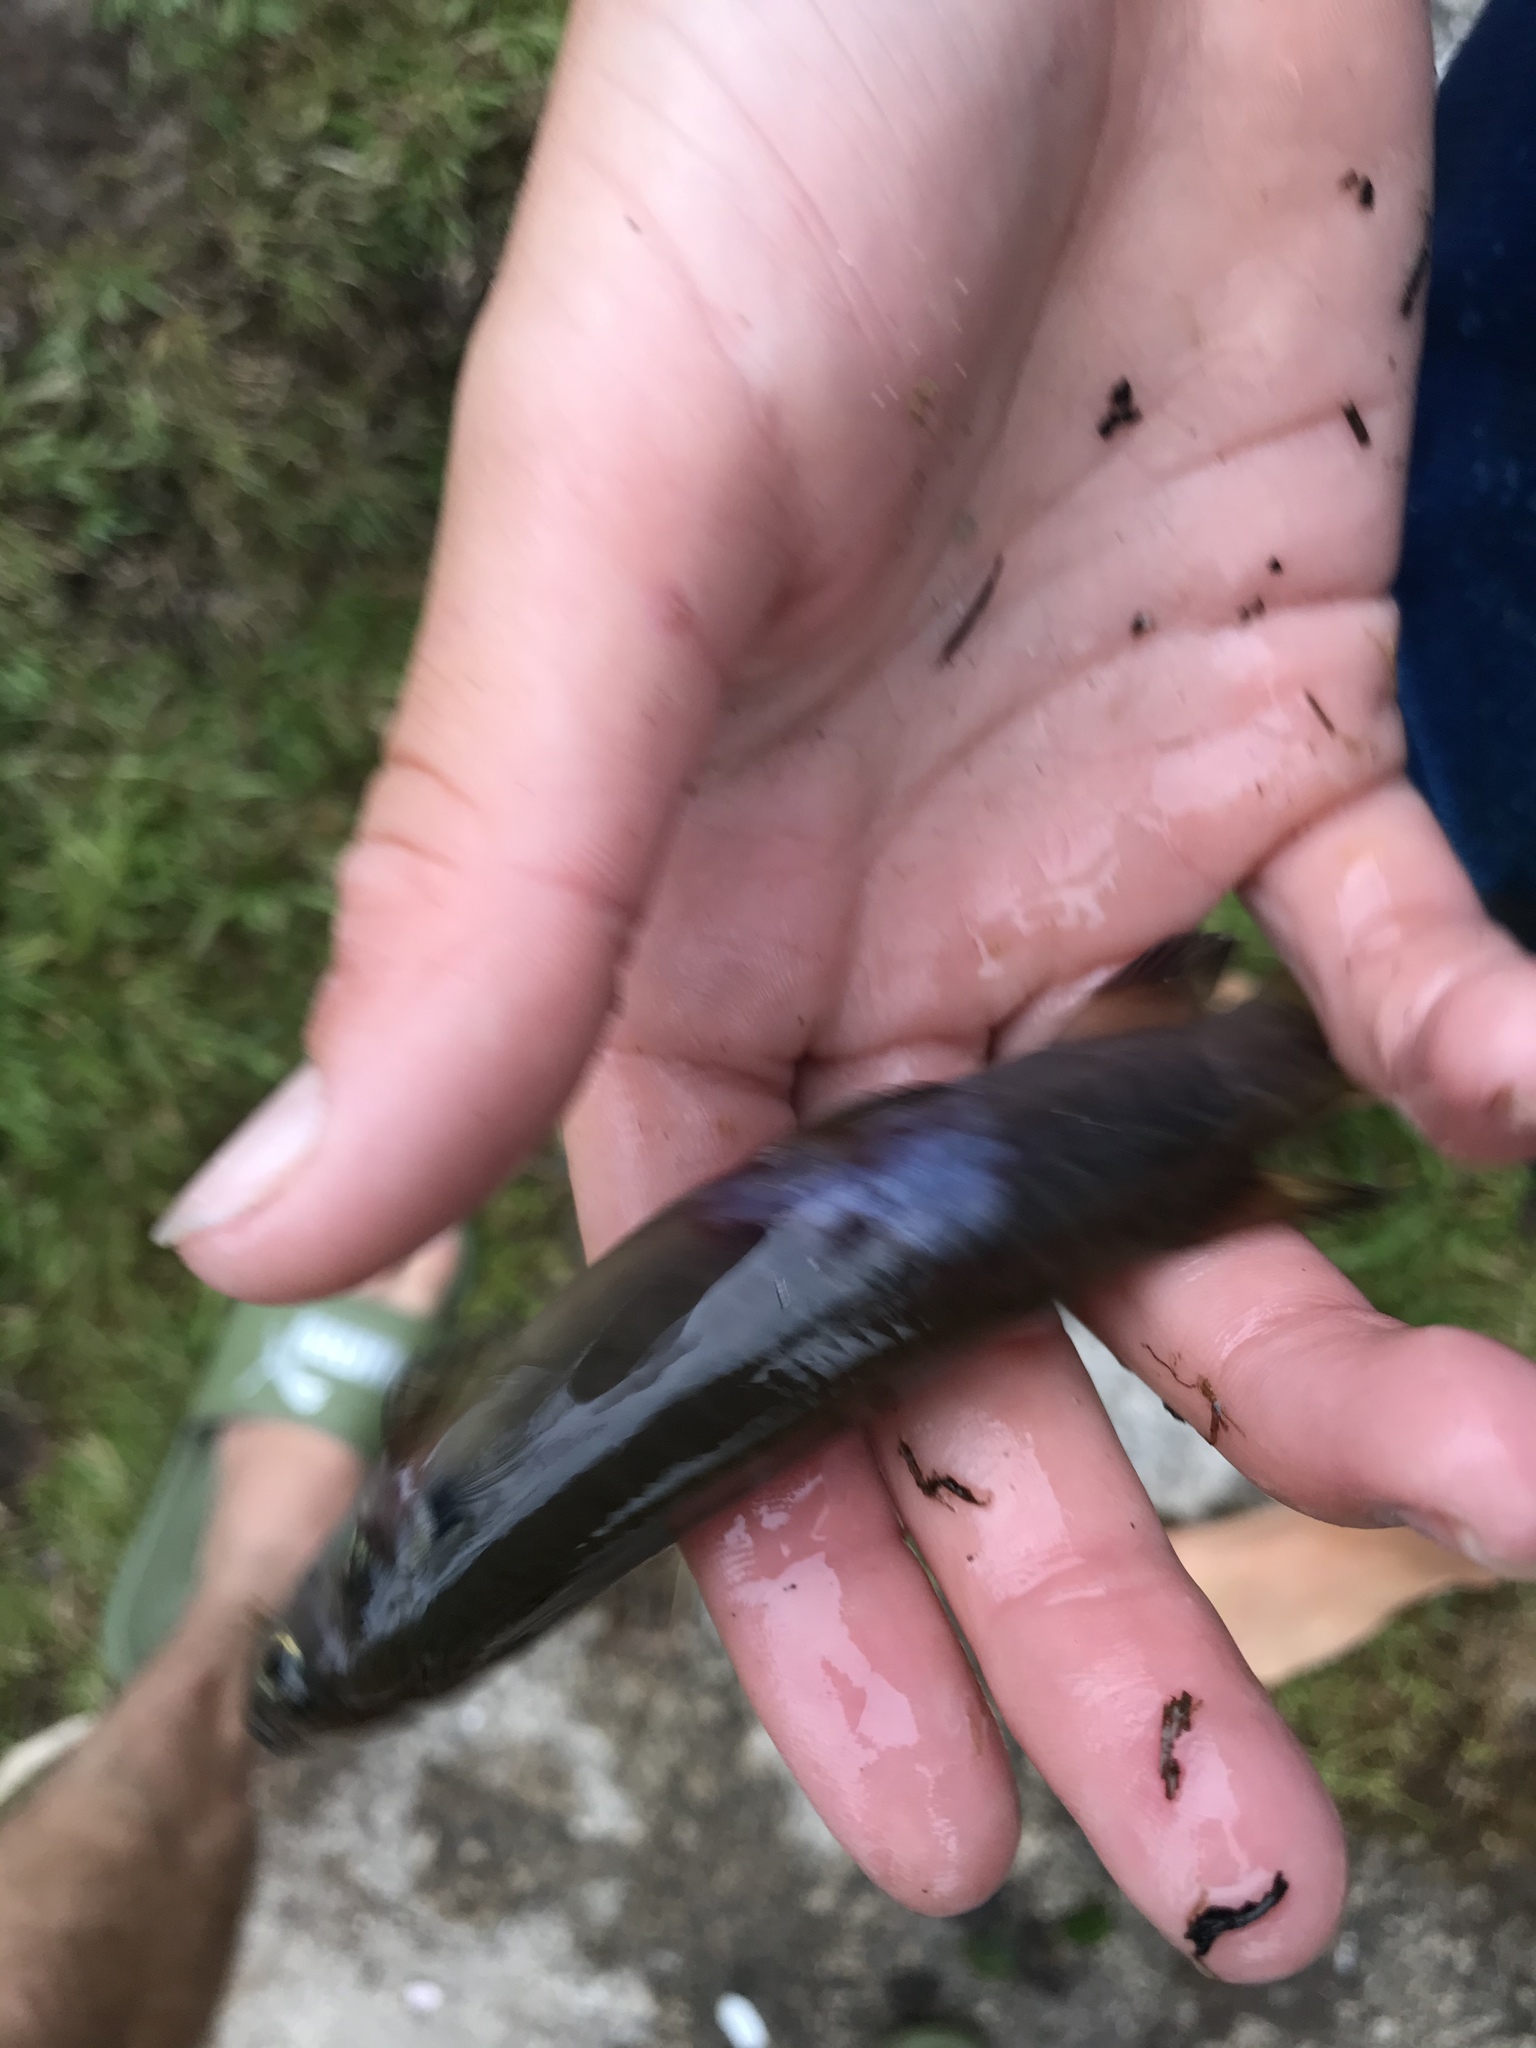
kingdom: Animalia
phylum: Chordata
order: Osmeriformes
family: Galaxiidae
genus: Galaxias
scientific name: Galaxias fasciatus
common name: Banded kokopu
